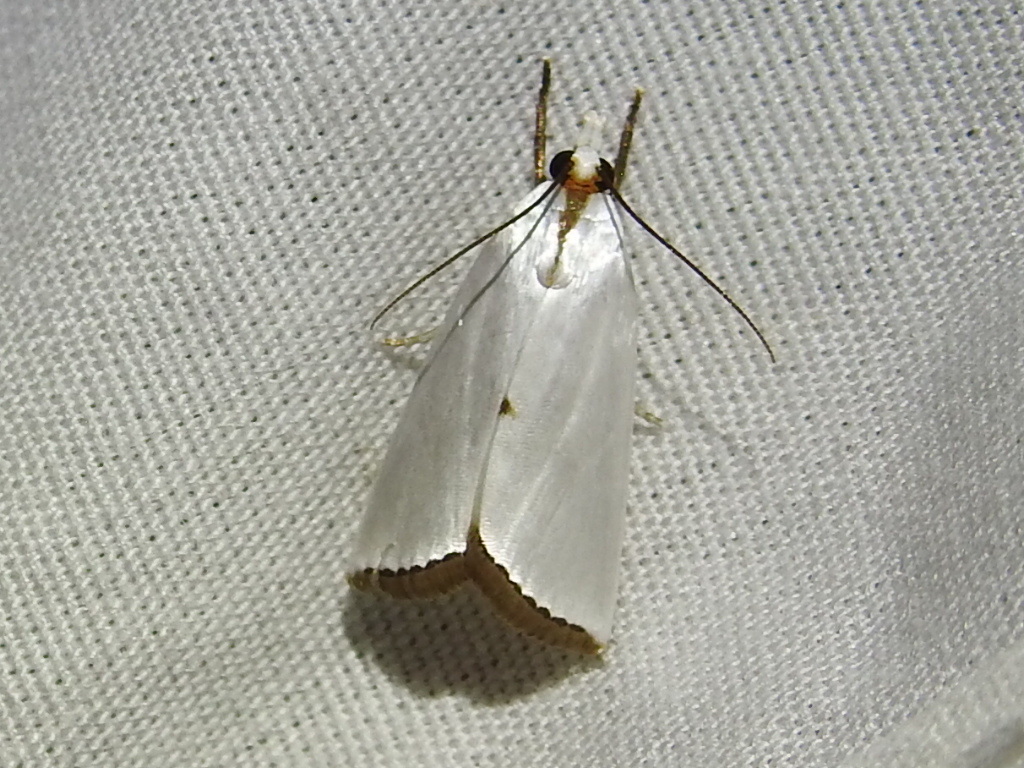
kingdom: Animalia
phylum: Arthropoda
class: Insecta
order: Lepidoptera
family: Crambidae
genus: Argyria
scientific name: Argyria nivalis
